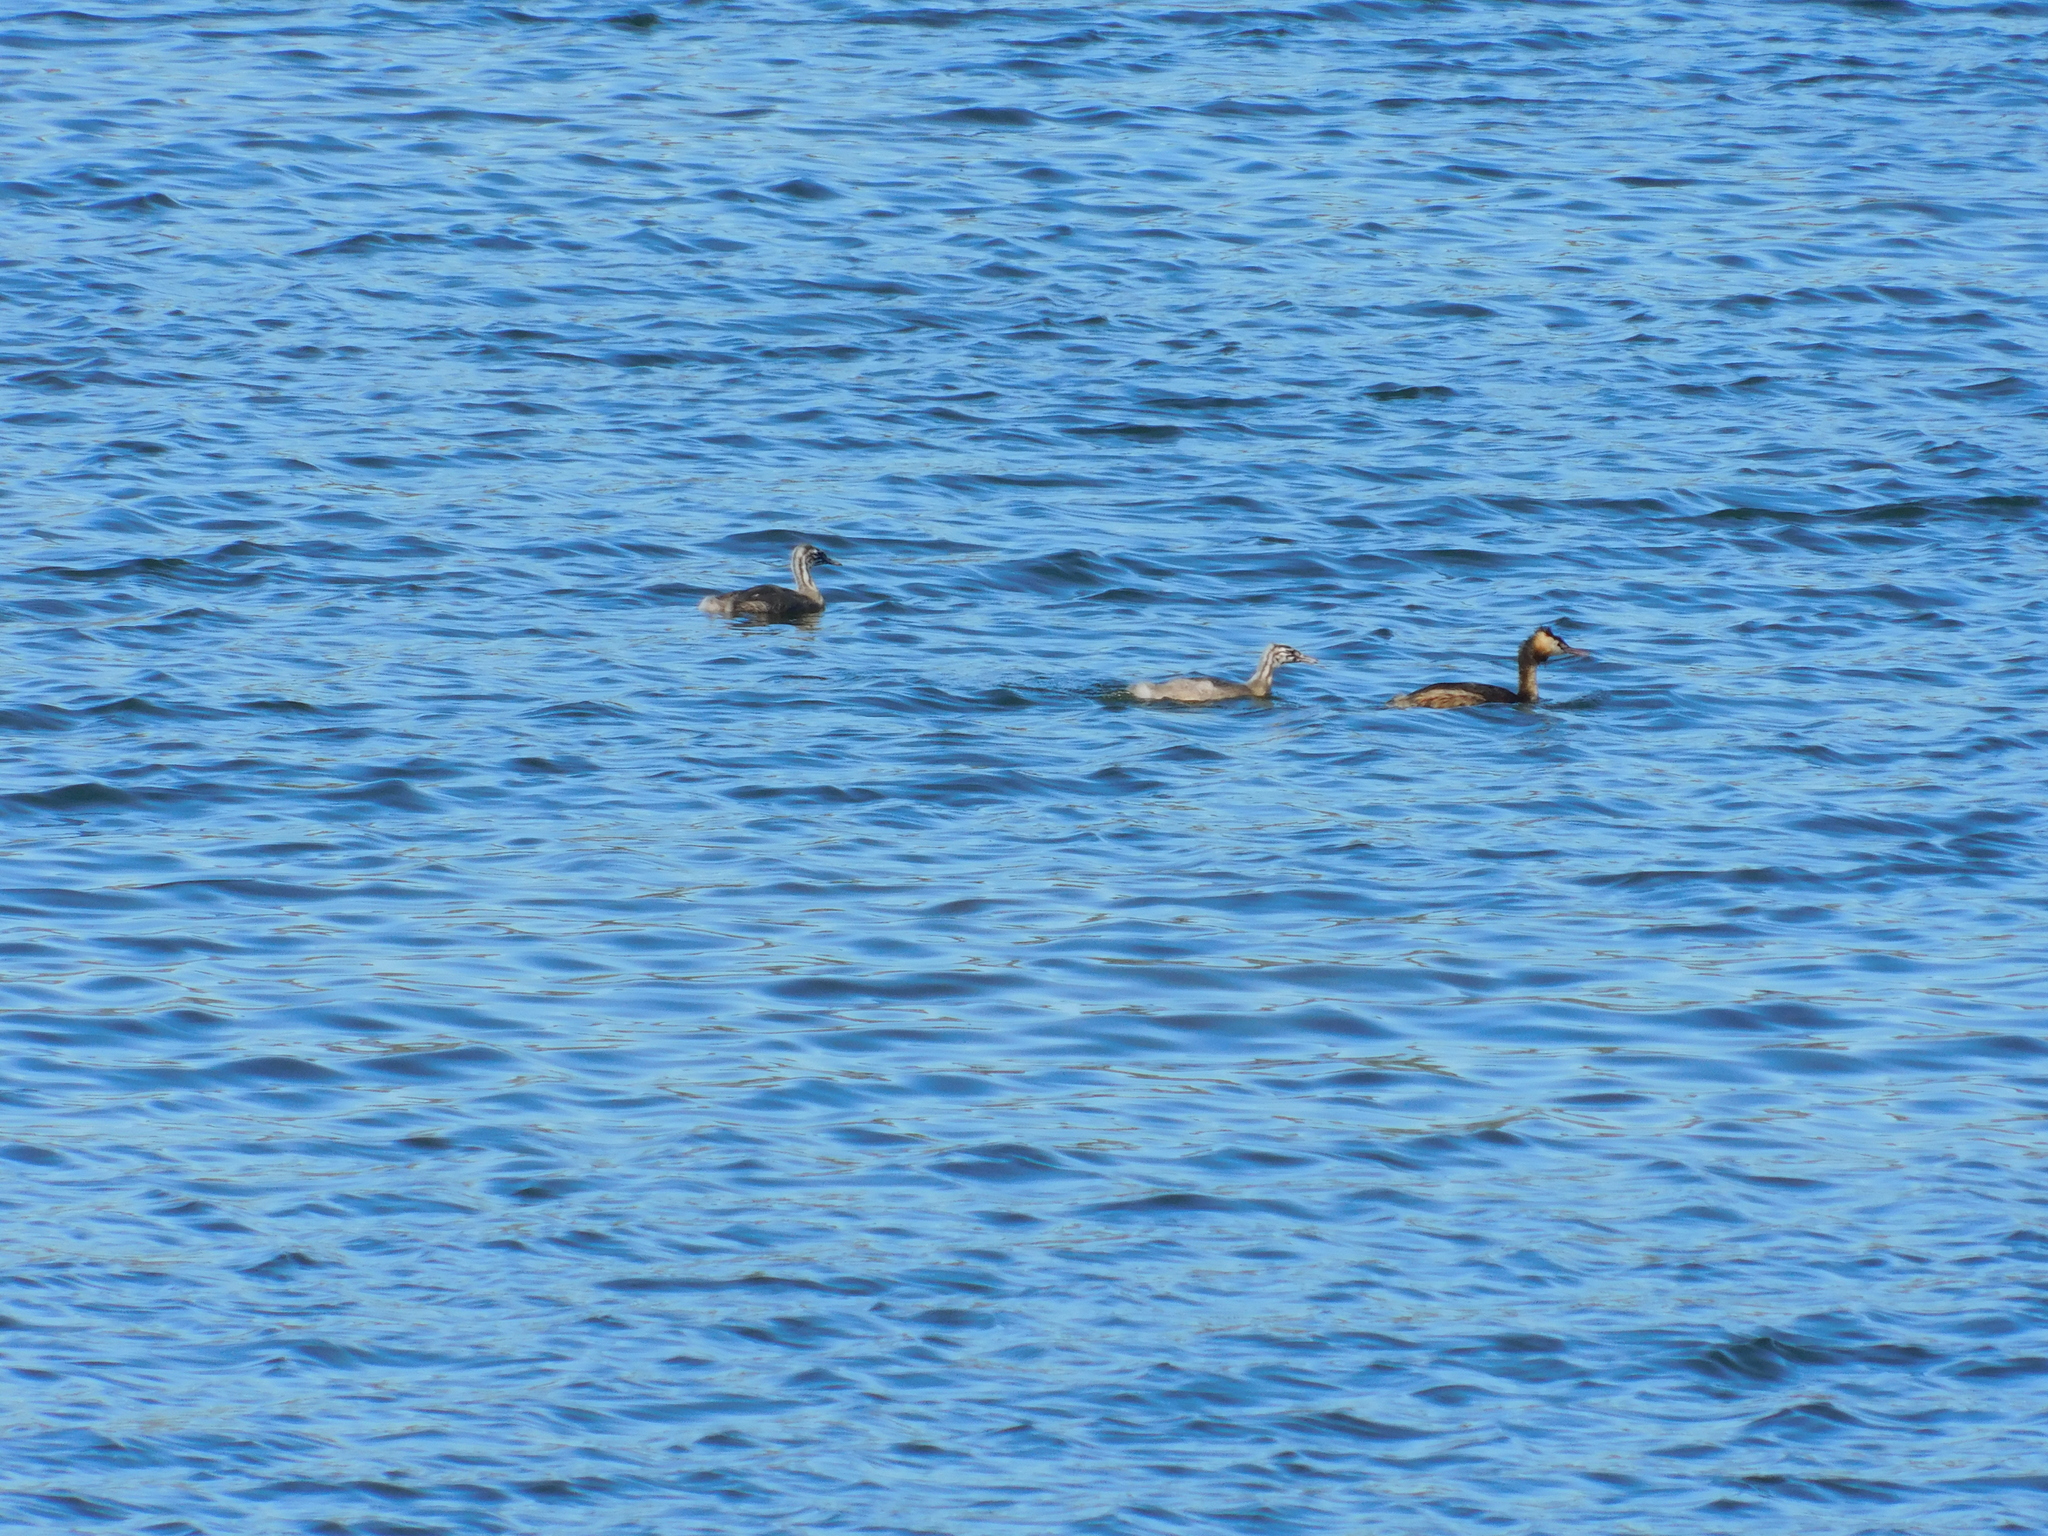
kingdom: Animalia
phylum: Chordata
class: Aves
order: Podicipediformes
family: Podicipedidae
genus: Podiceps
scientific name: Podiceps cristatus
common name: Great crested grebe
